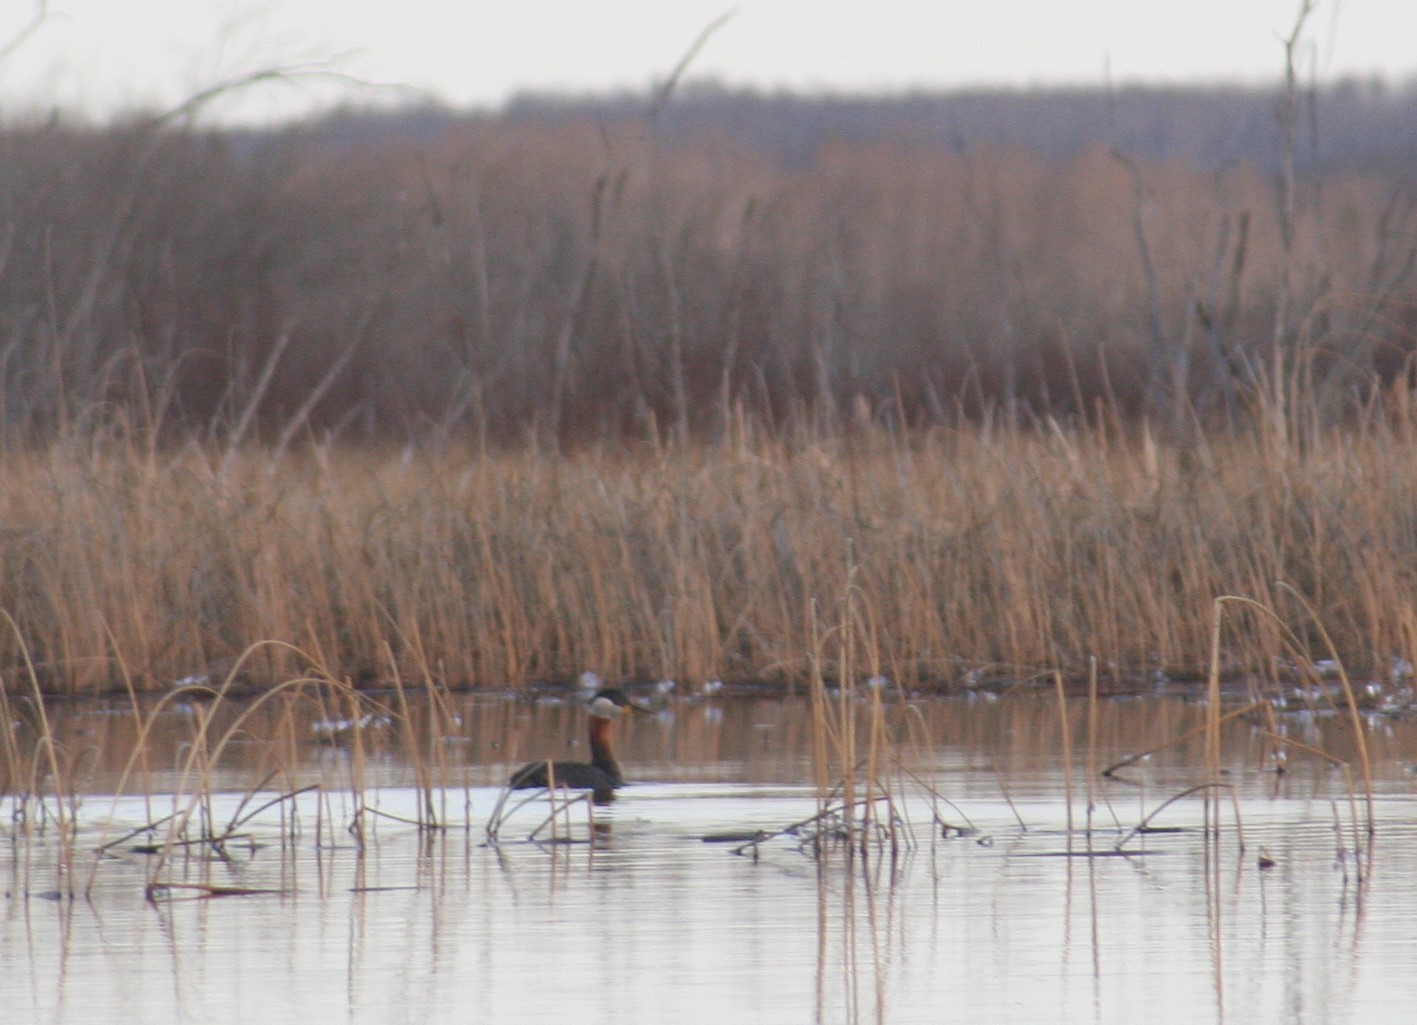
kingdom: Animalia
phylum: Chordata
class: Aves
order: Podicipediformes
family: Podicipedidae
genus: Podiceps
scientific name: Podiceps grisegena
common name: Red-necked grebe
